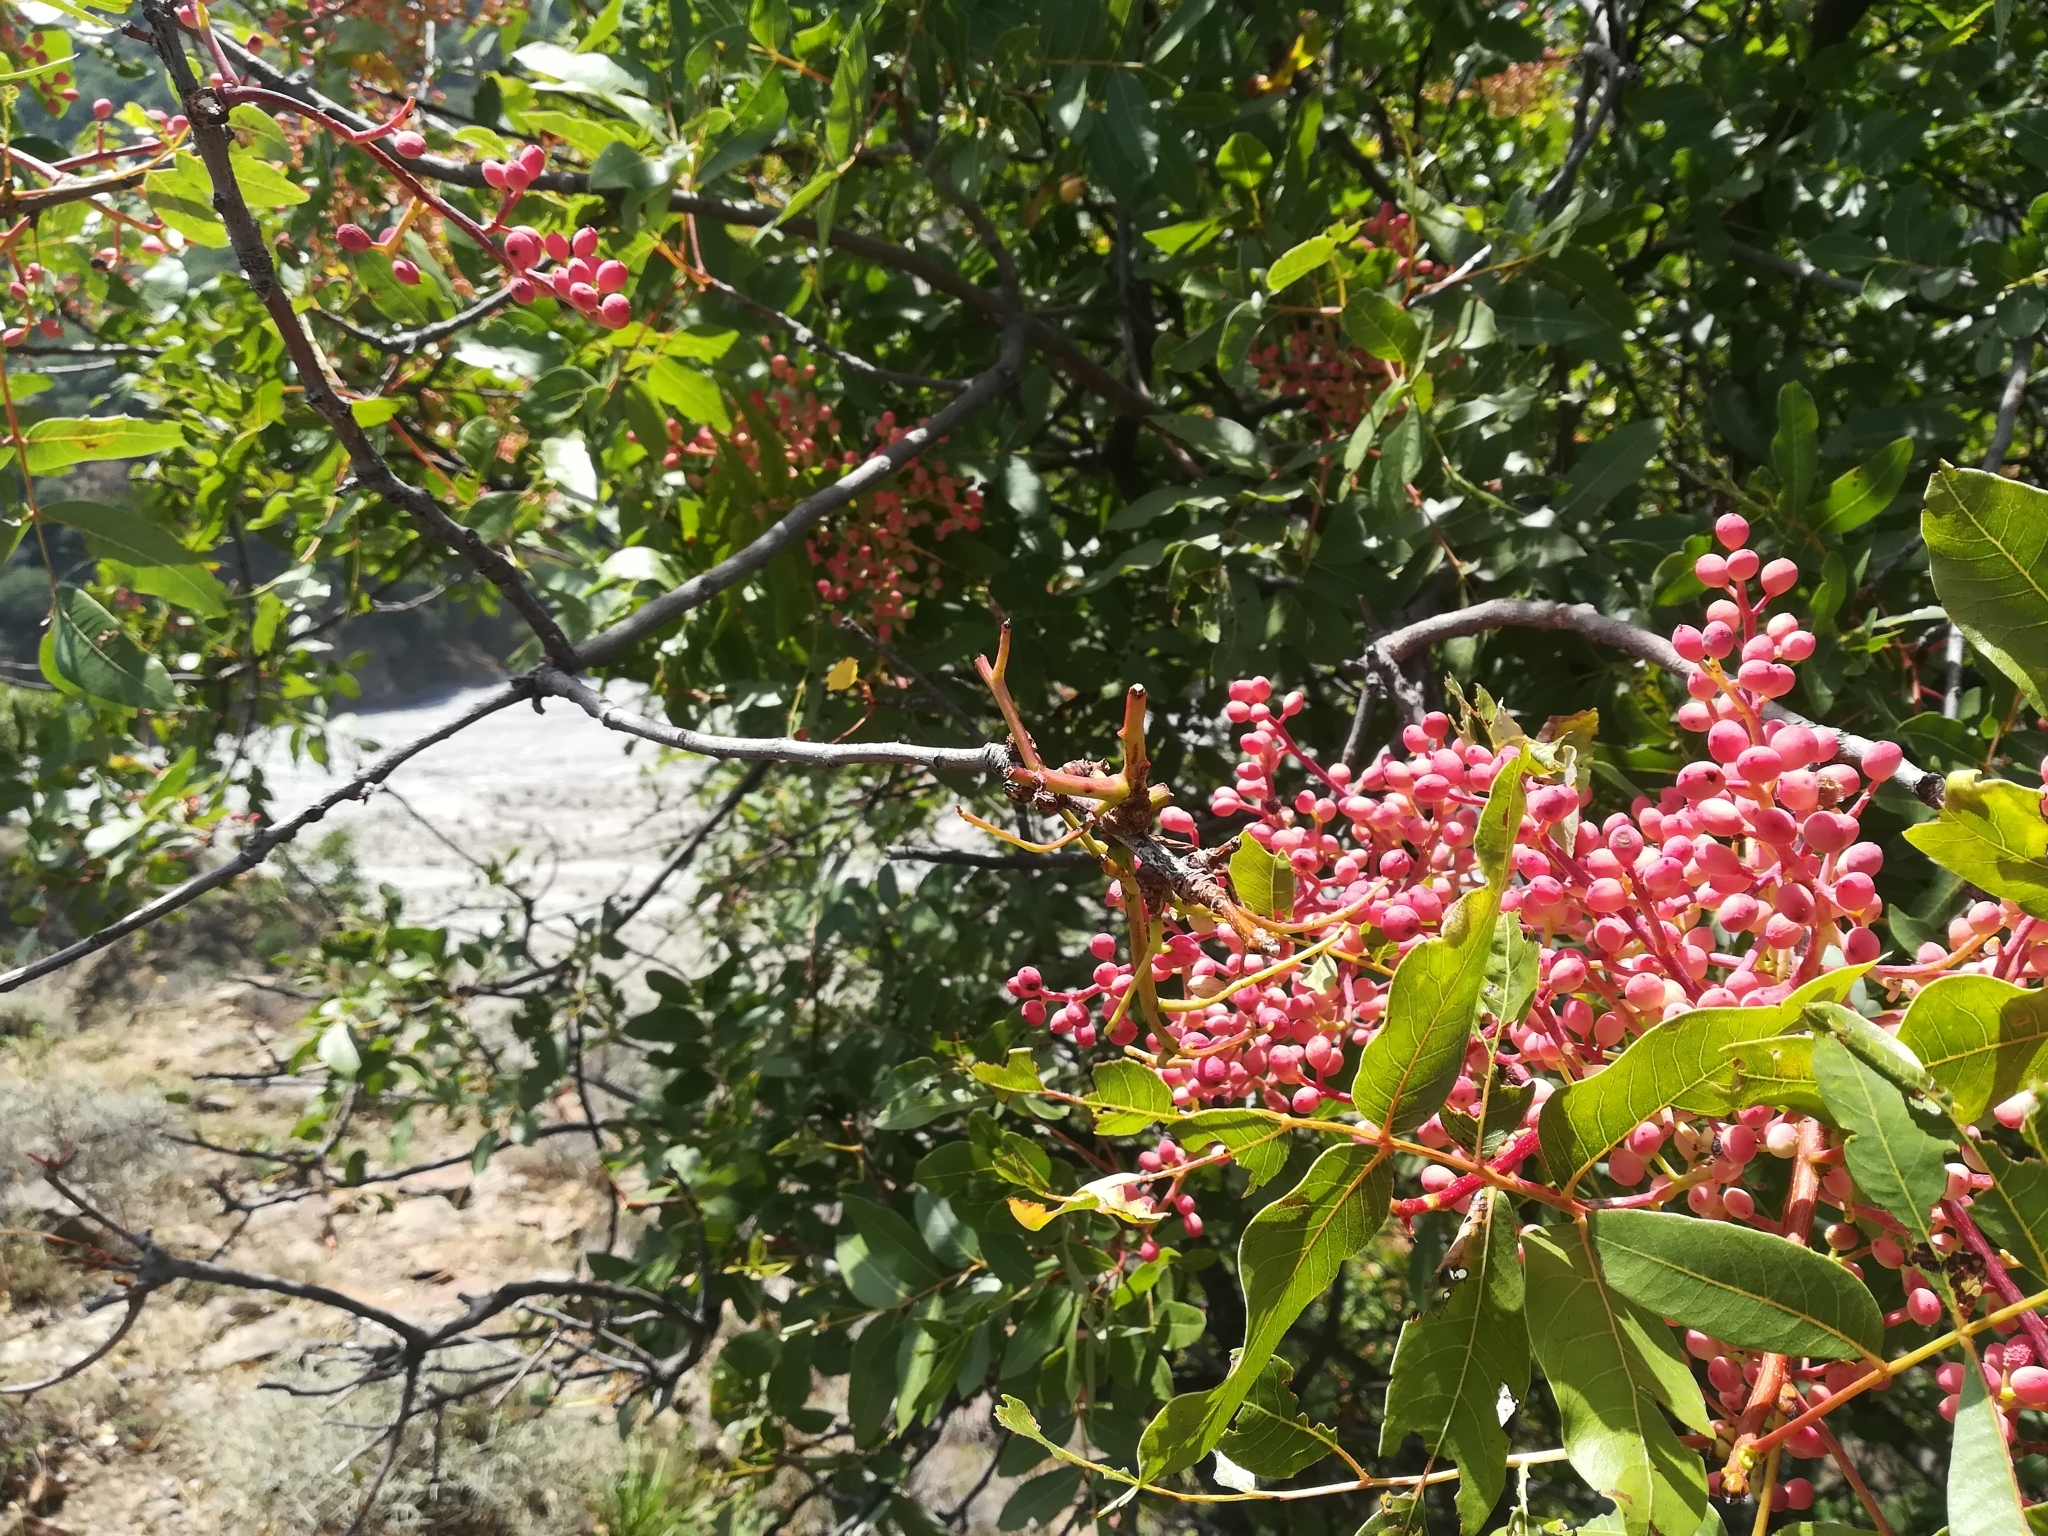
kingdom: Plantae
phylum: Tracheophyta
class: Magnoliopsida
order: Sapindales
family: Anacardiaceae
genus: Pistacia
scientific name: Pistacia terebinthus
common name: Terebinth
